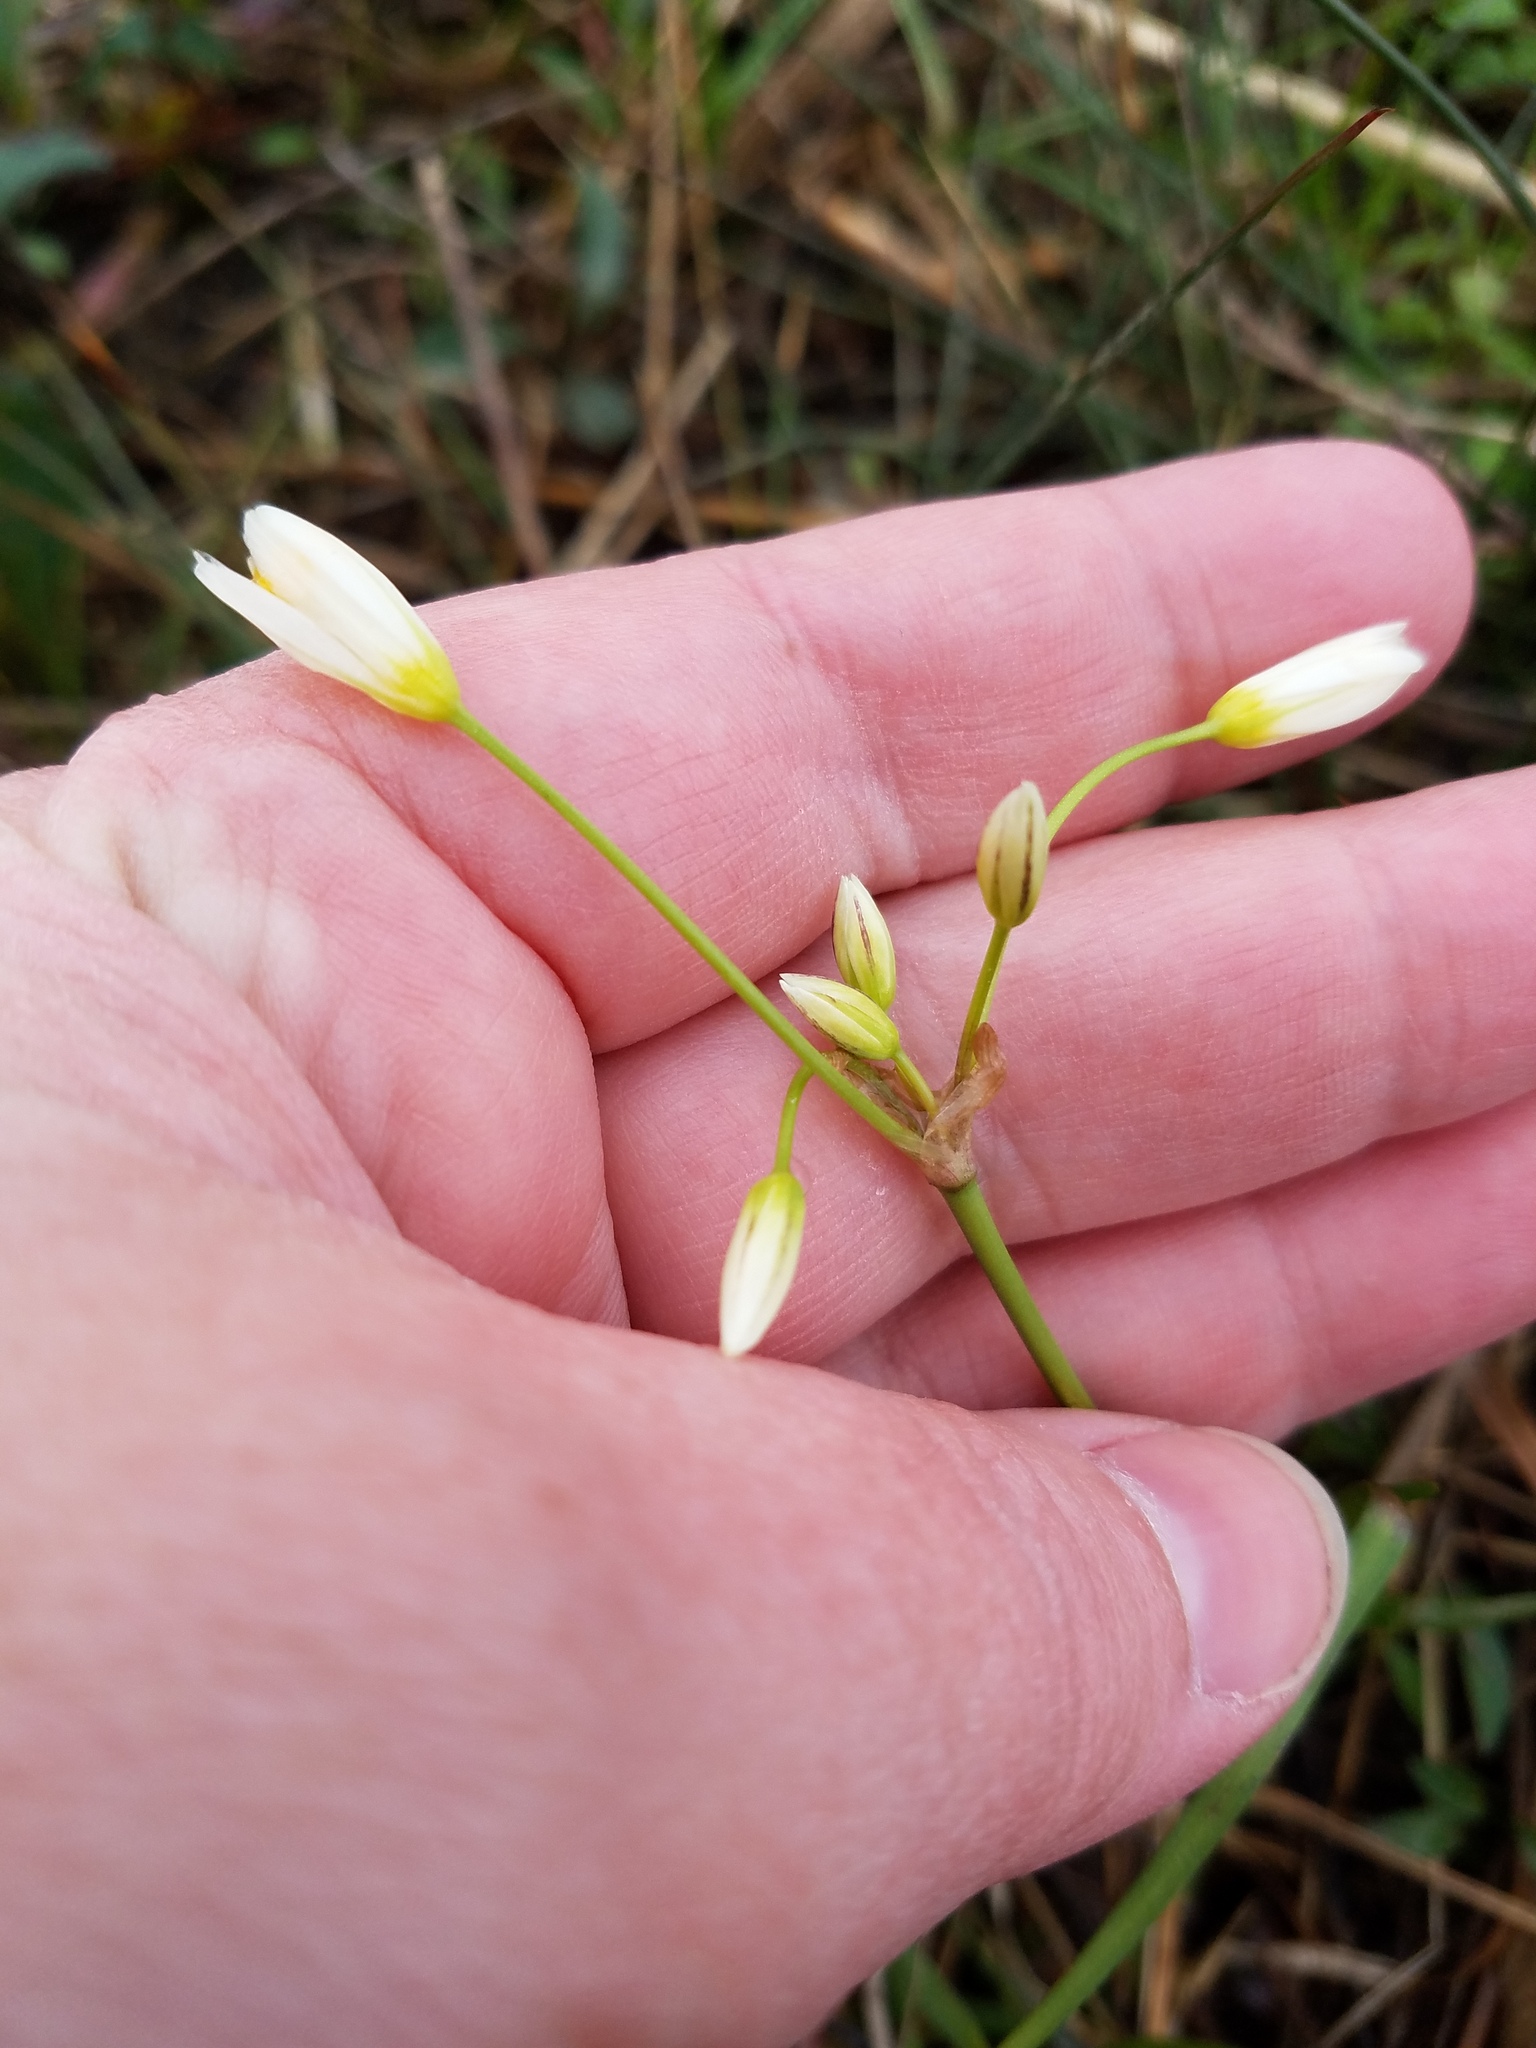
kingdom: Plantae
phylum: Tracheophyta
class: Liliopsida
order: Asparagales
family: Amaryllidaceae
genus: Nothoscordum
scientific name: Nothoscordum bivalve
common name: Crow-poison
